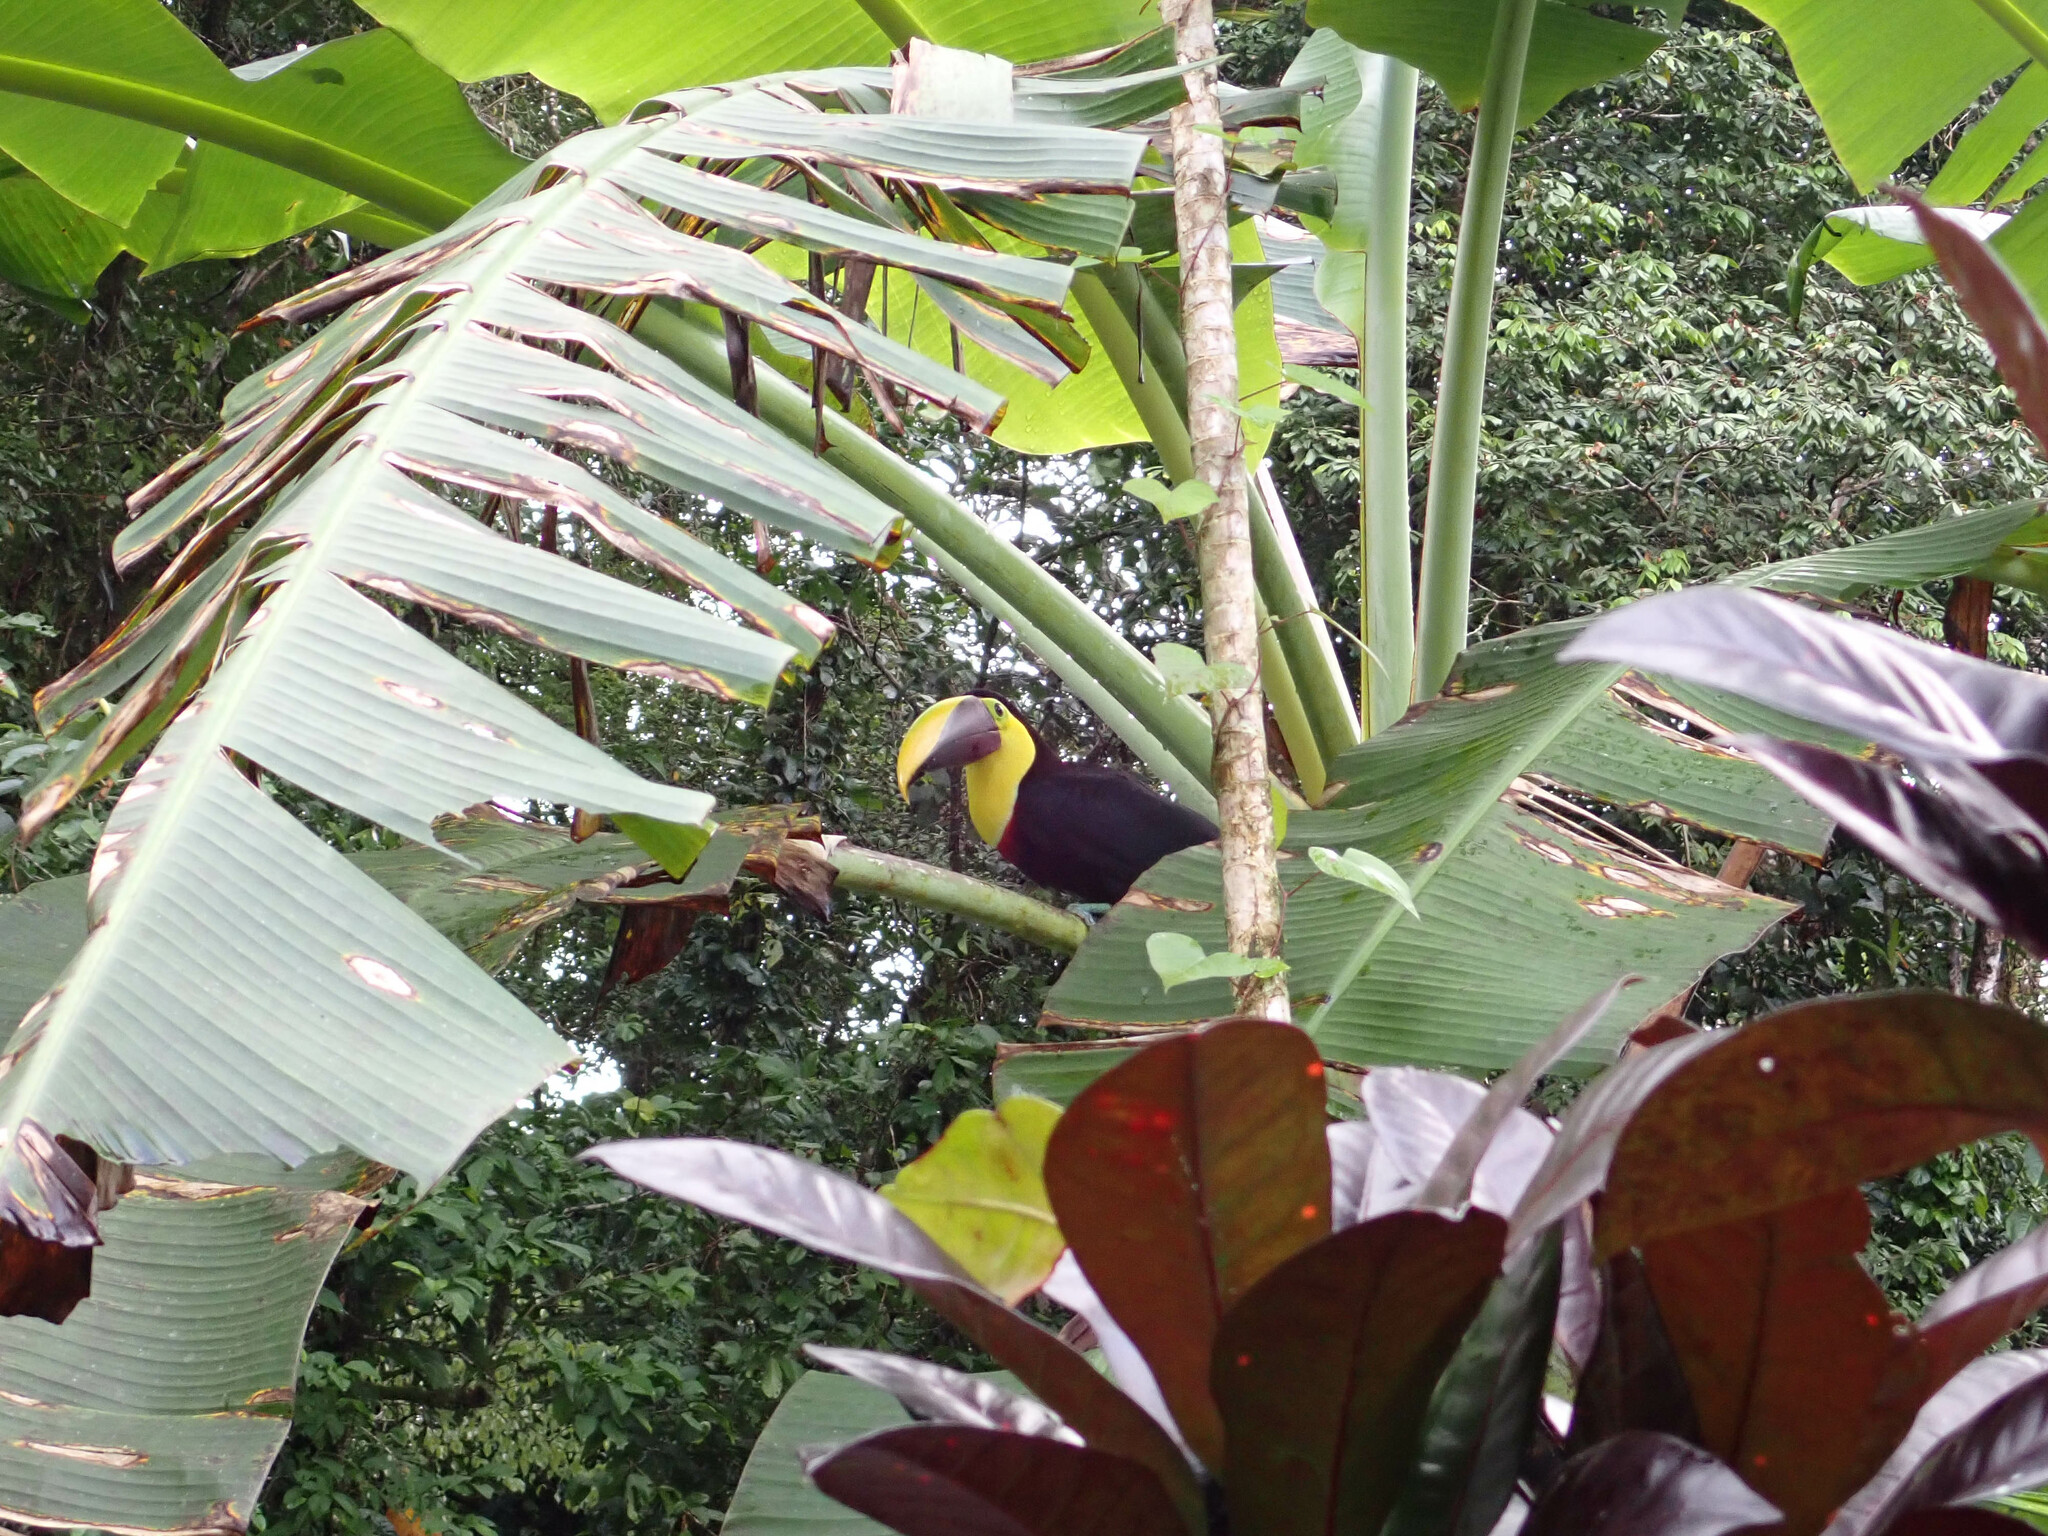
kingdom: Animalia
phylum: Chordata
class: Aves
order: Piciformes
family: Ramphastidae
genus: Ramphastos
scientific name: Ramphastos ambiguus
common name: Yellow-throated toucan
